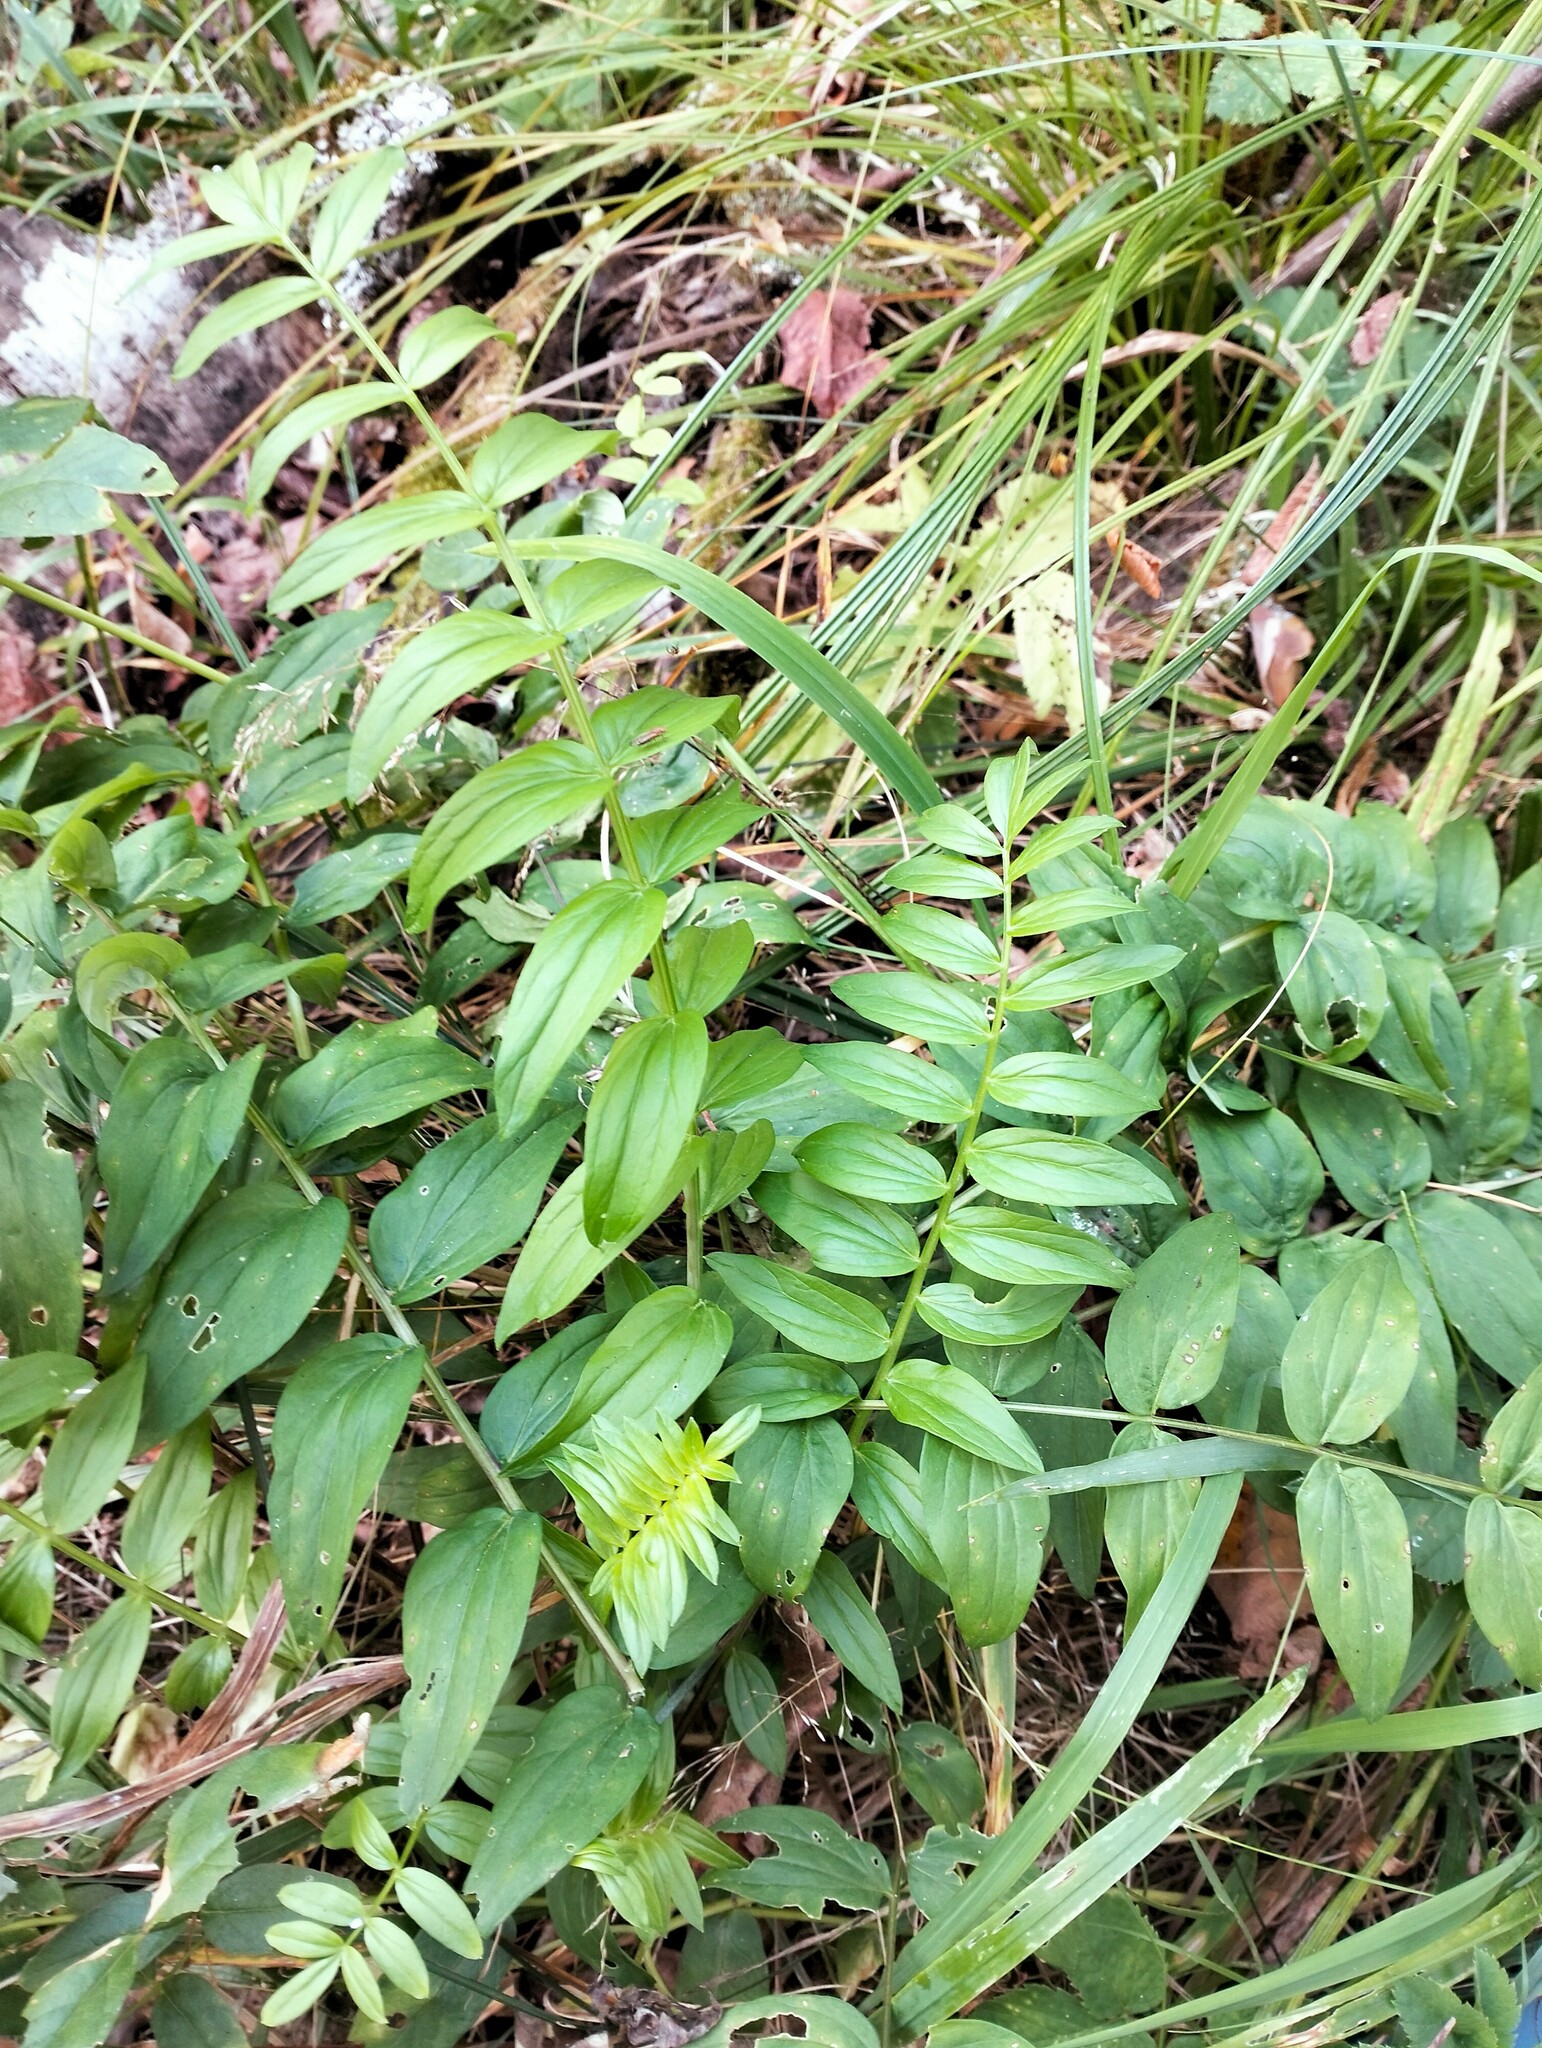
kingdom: Plantae
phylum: Tracheophyta
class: Magnoliopsida
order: Ericales
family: Polemoniaceae
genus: Polemonium
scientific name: Polemonium caeruleum
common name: Jacob's-ladder
